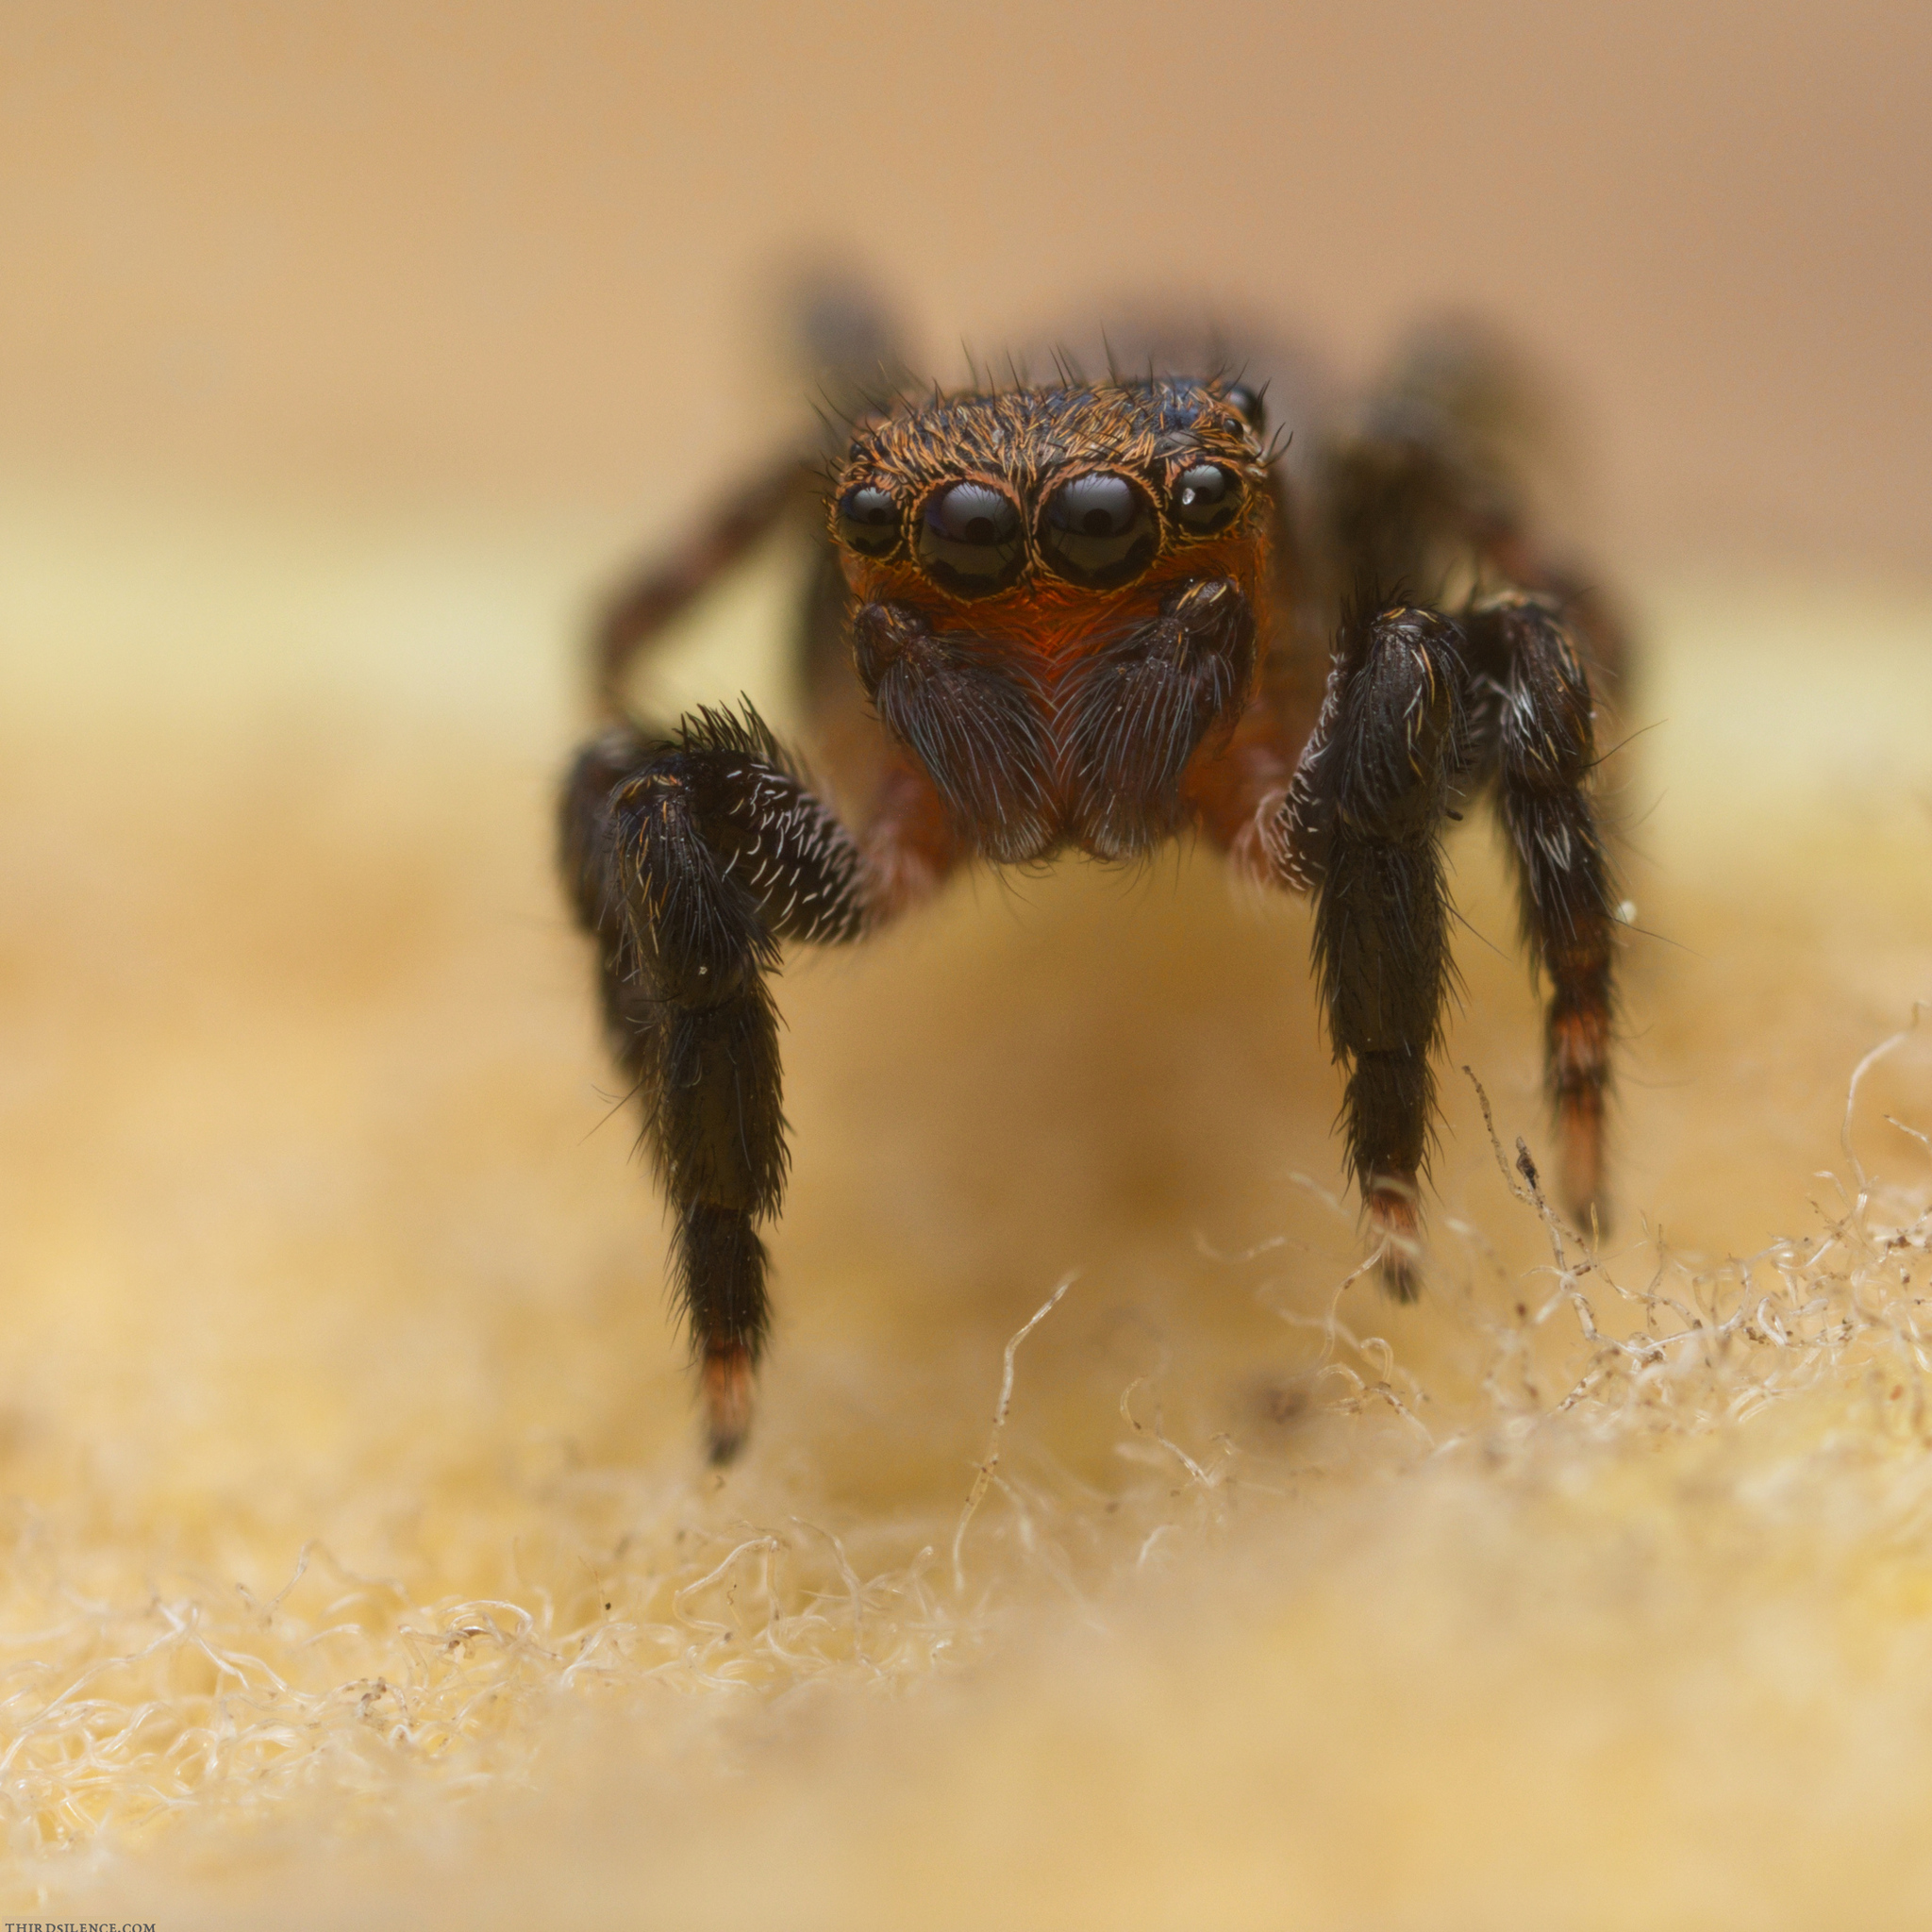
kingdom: Animalia
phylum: Arthropoda
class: Arachnida
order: Araneae
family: Salticidae
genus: Euophrys
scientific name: Euophrys rufibarbis
